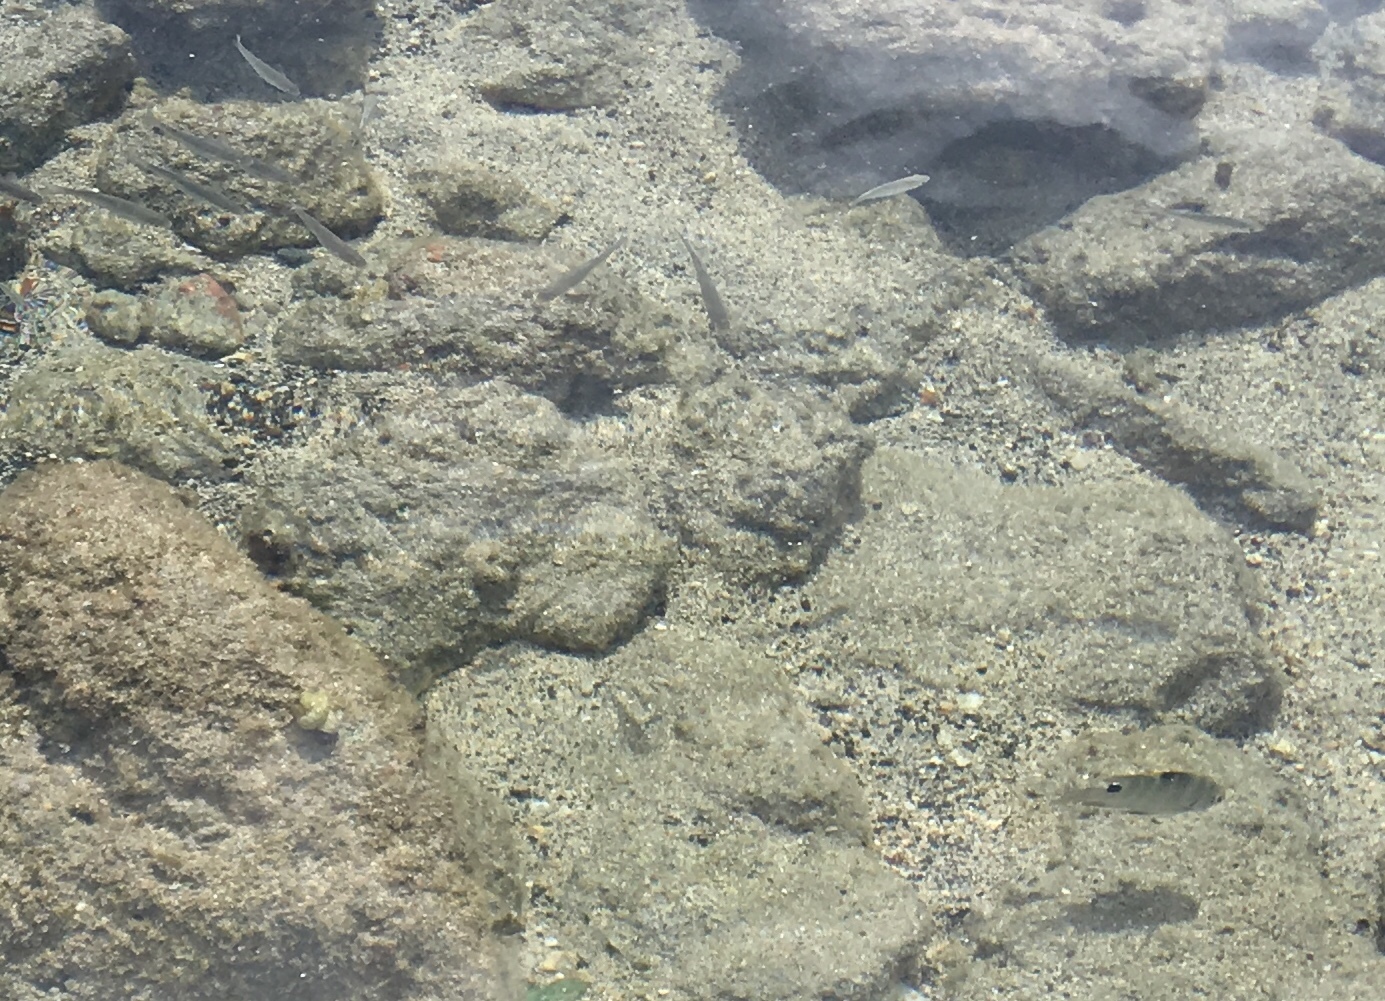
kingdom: Animalia
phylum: Chordata
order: Perciformes
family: Pomacentridae
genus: Abudefduf
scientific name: Abudefduf sordidus
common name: Blackspot sergeant
